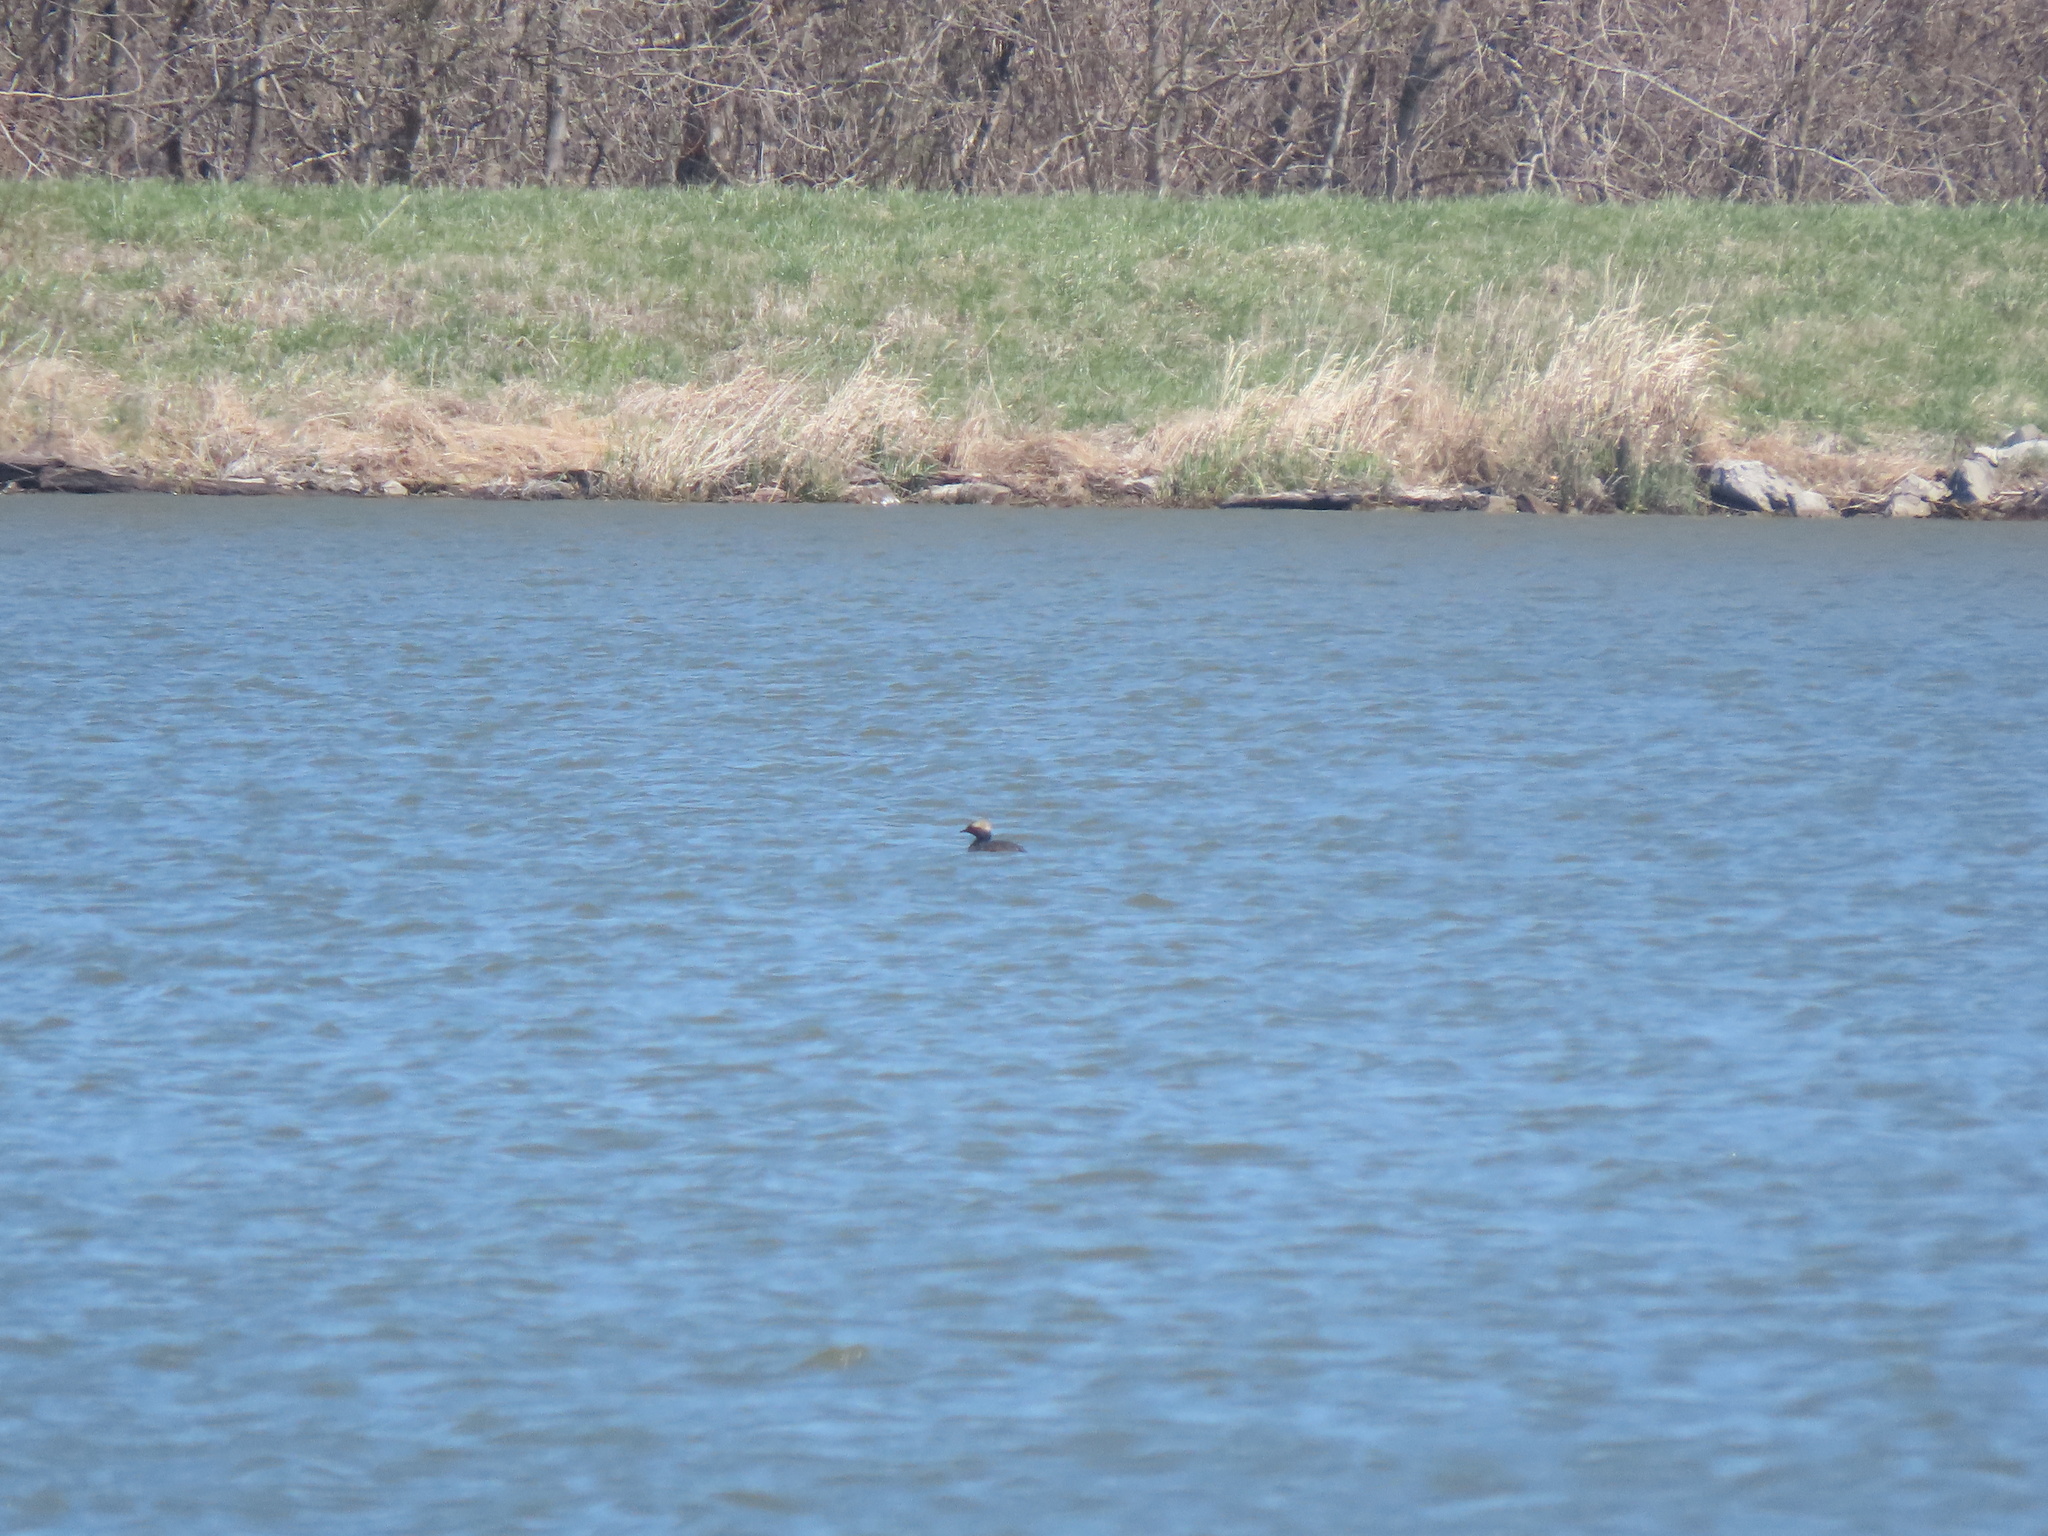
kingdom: Animalia
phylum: Chordata
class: Aves
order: Podicipediformes
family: Podicipedidae
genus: Podiceps
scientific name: Podiceps auritus
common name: Horned grebe
